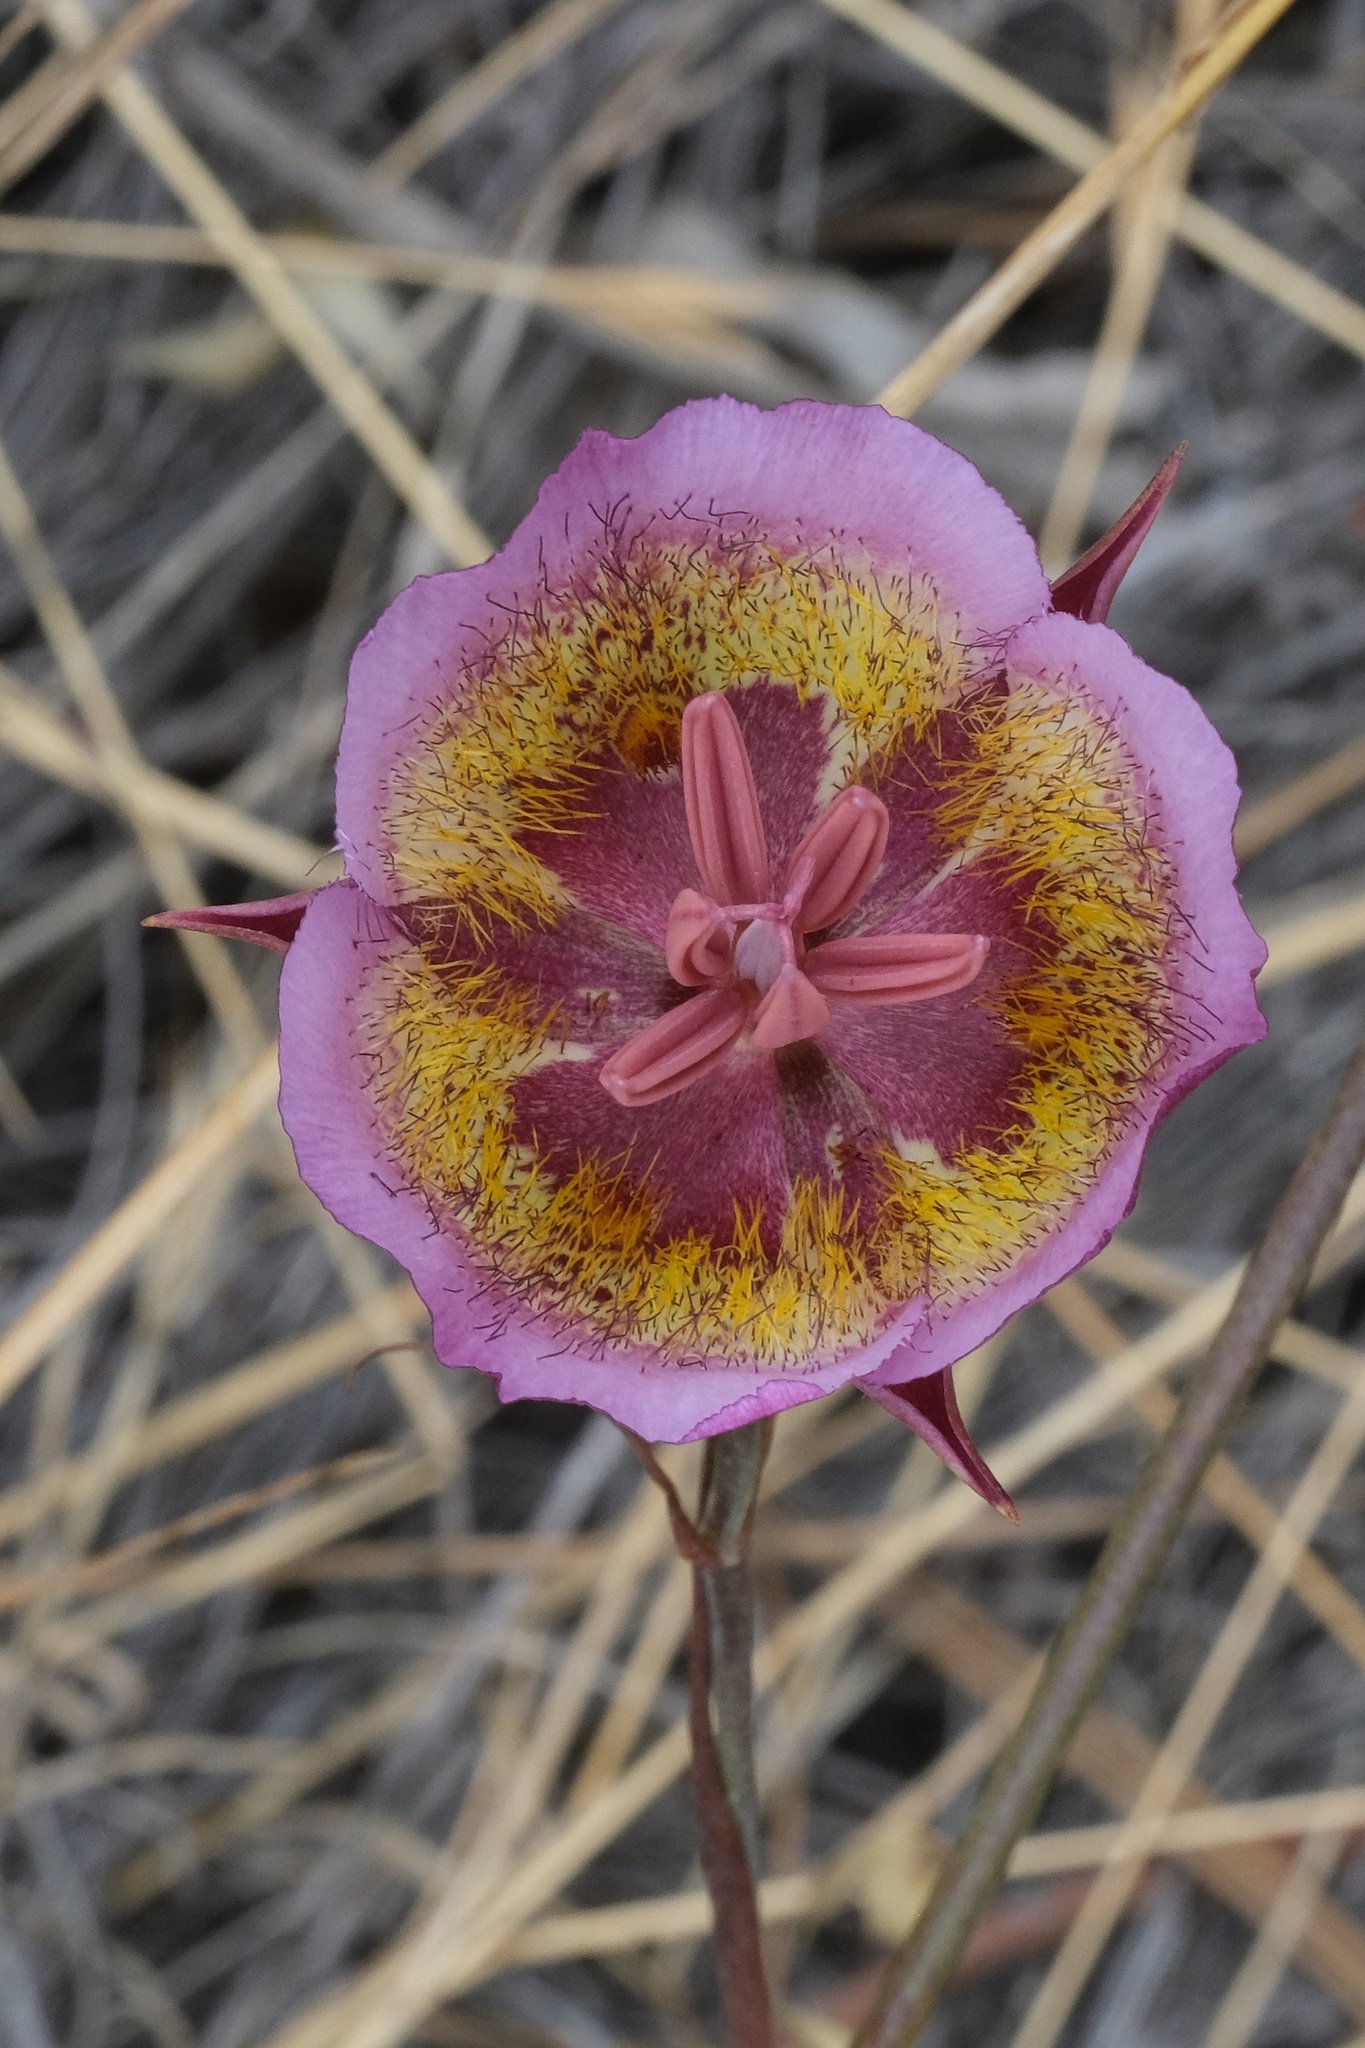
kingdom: Plantae
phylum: Tracheophyta
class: Liliopsida
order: Liliales
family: Liliaceae
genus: Calochortus
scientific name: Calochortus plummerae
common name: Plummer's mariposa-lily
